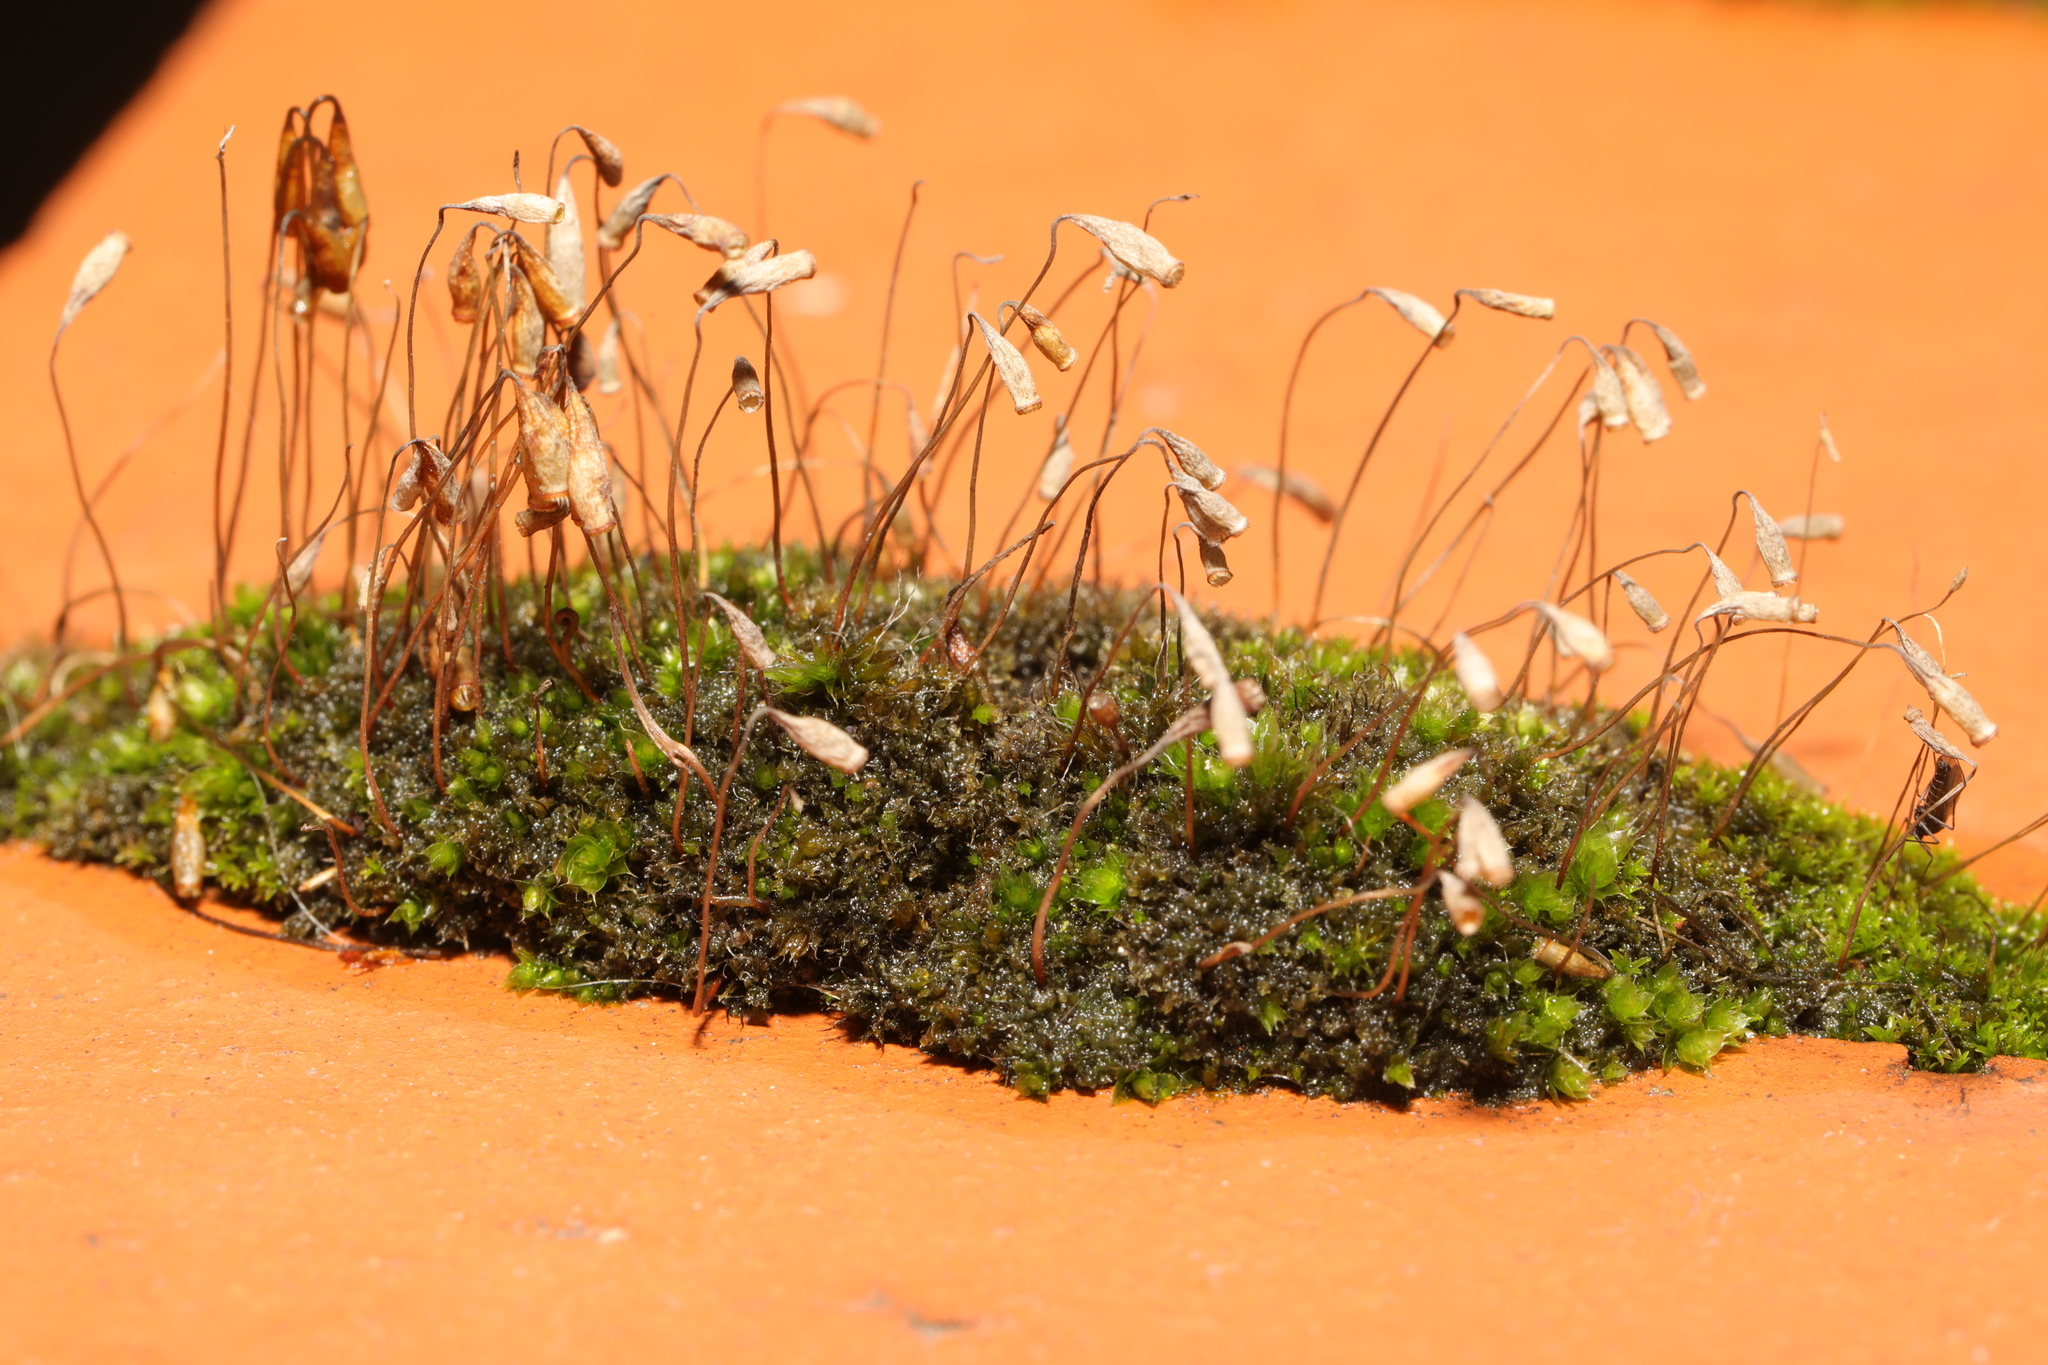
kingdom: Plantae
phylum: Bryophyta
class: Bryopsida
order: Bryales
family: Bryaceae
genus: Rosulabryum
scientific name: Rosulabryum capillare
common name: Capillary thread-moss
